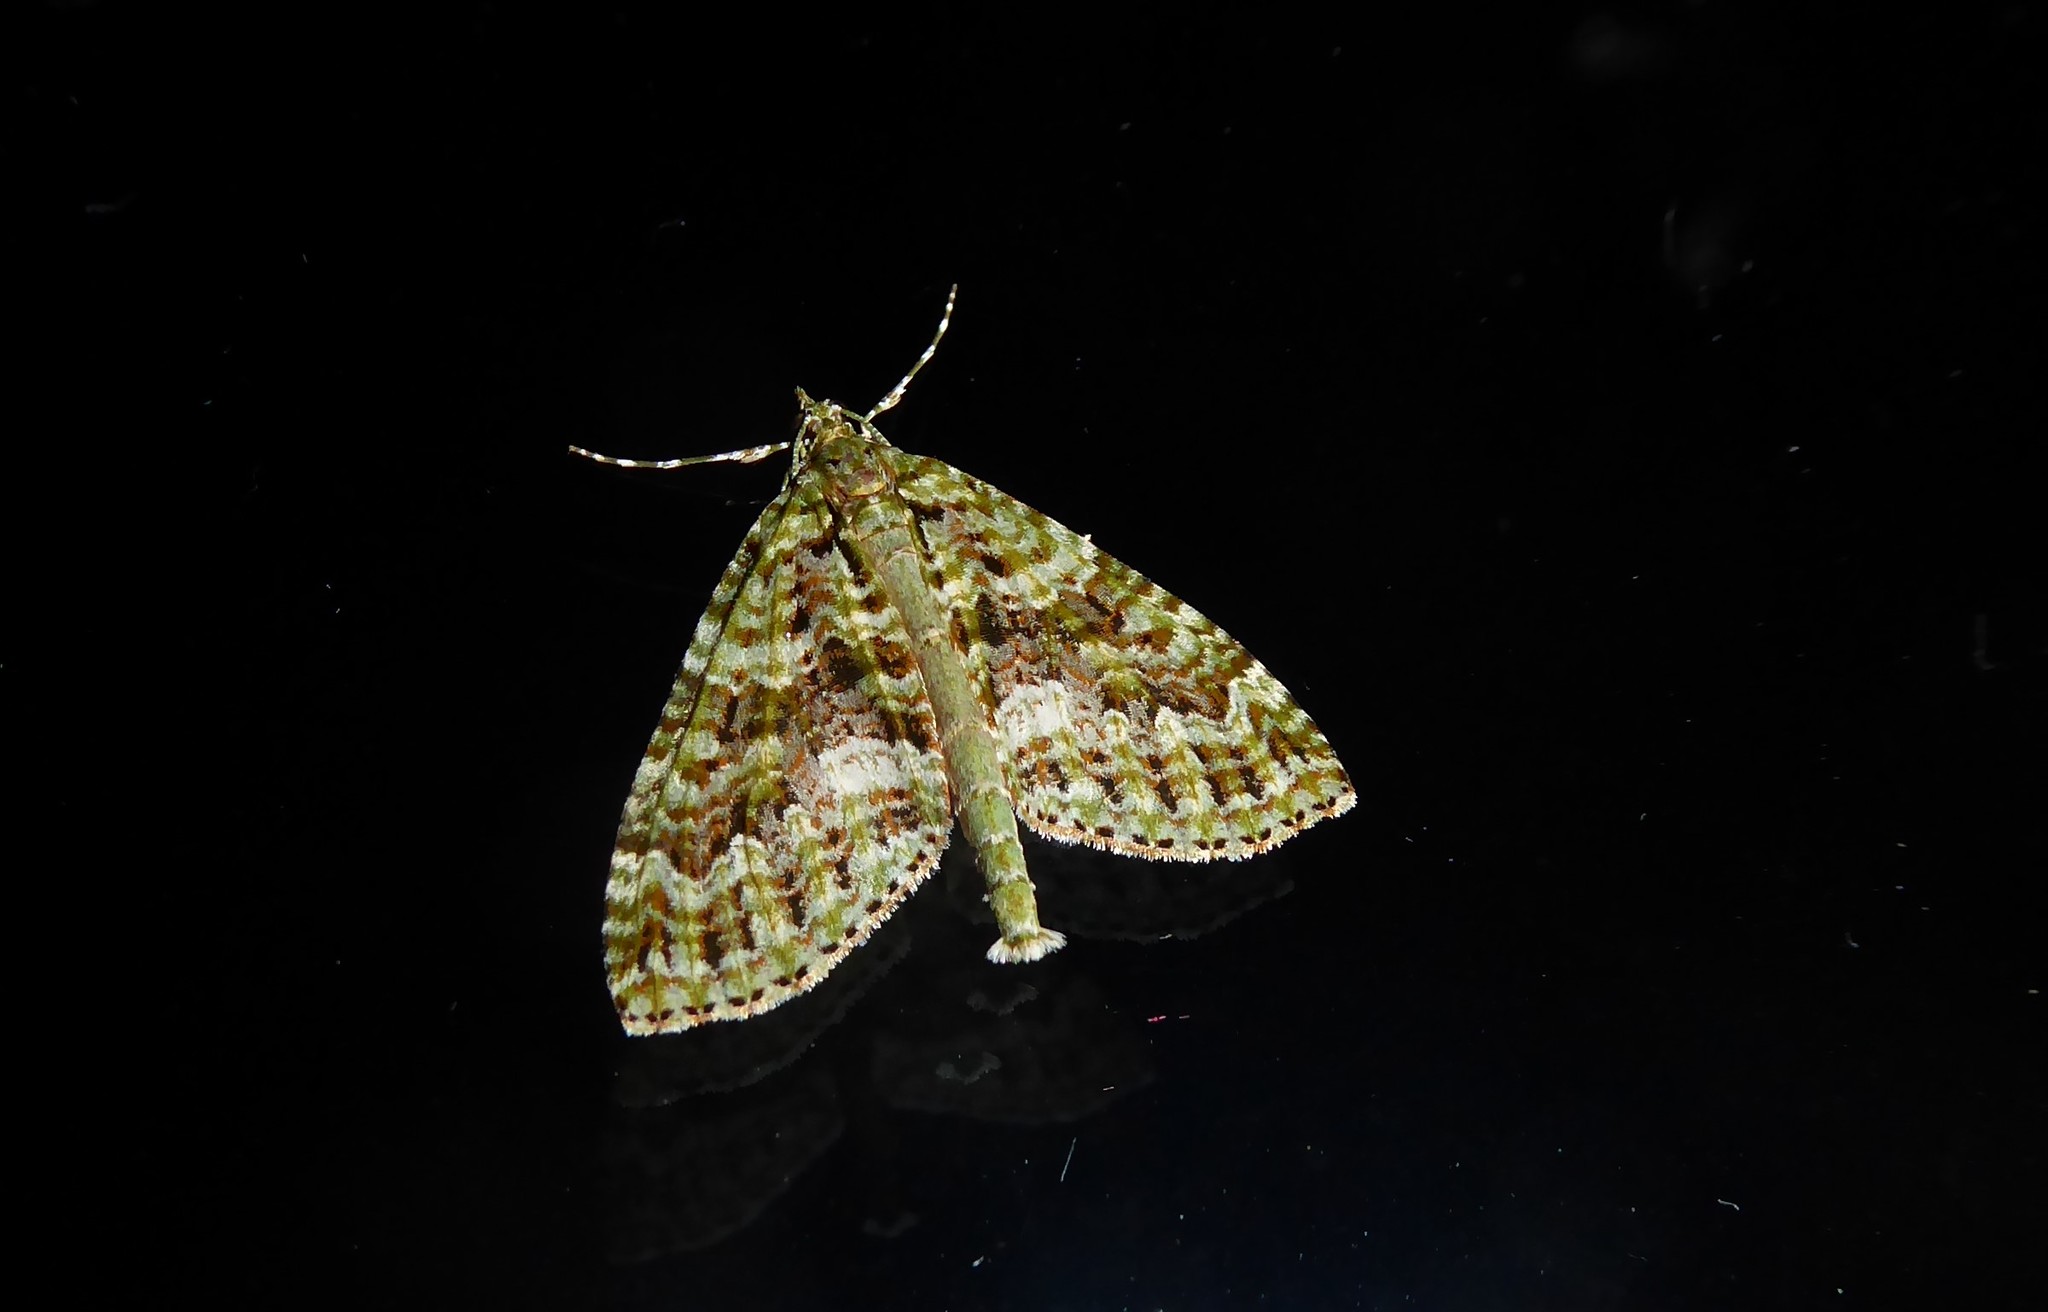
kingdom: Animalia
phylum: Arthropoda
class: Insecta
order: Lepidoptera
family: Geometridae
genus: Tatosoma
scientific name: Tatosoma agrionata
